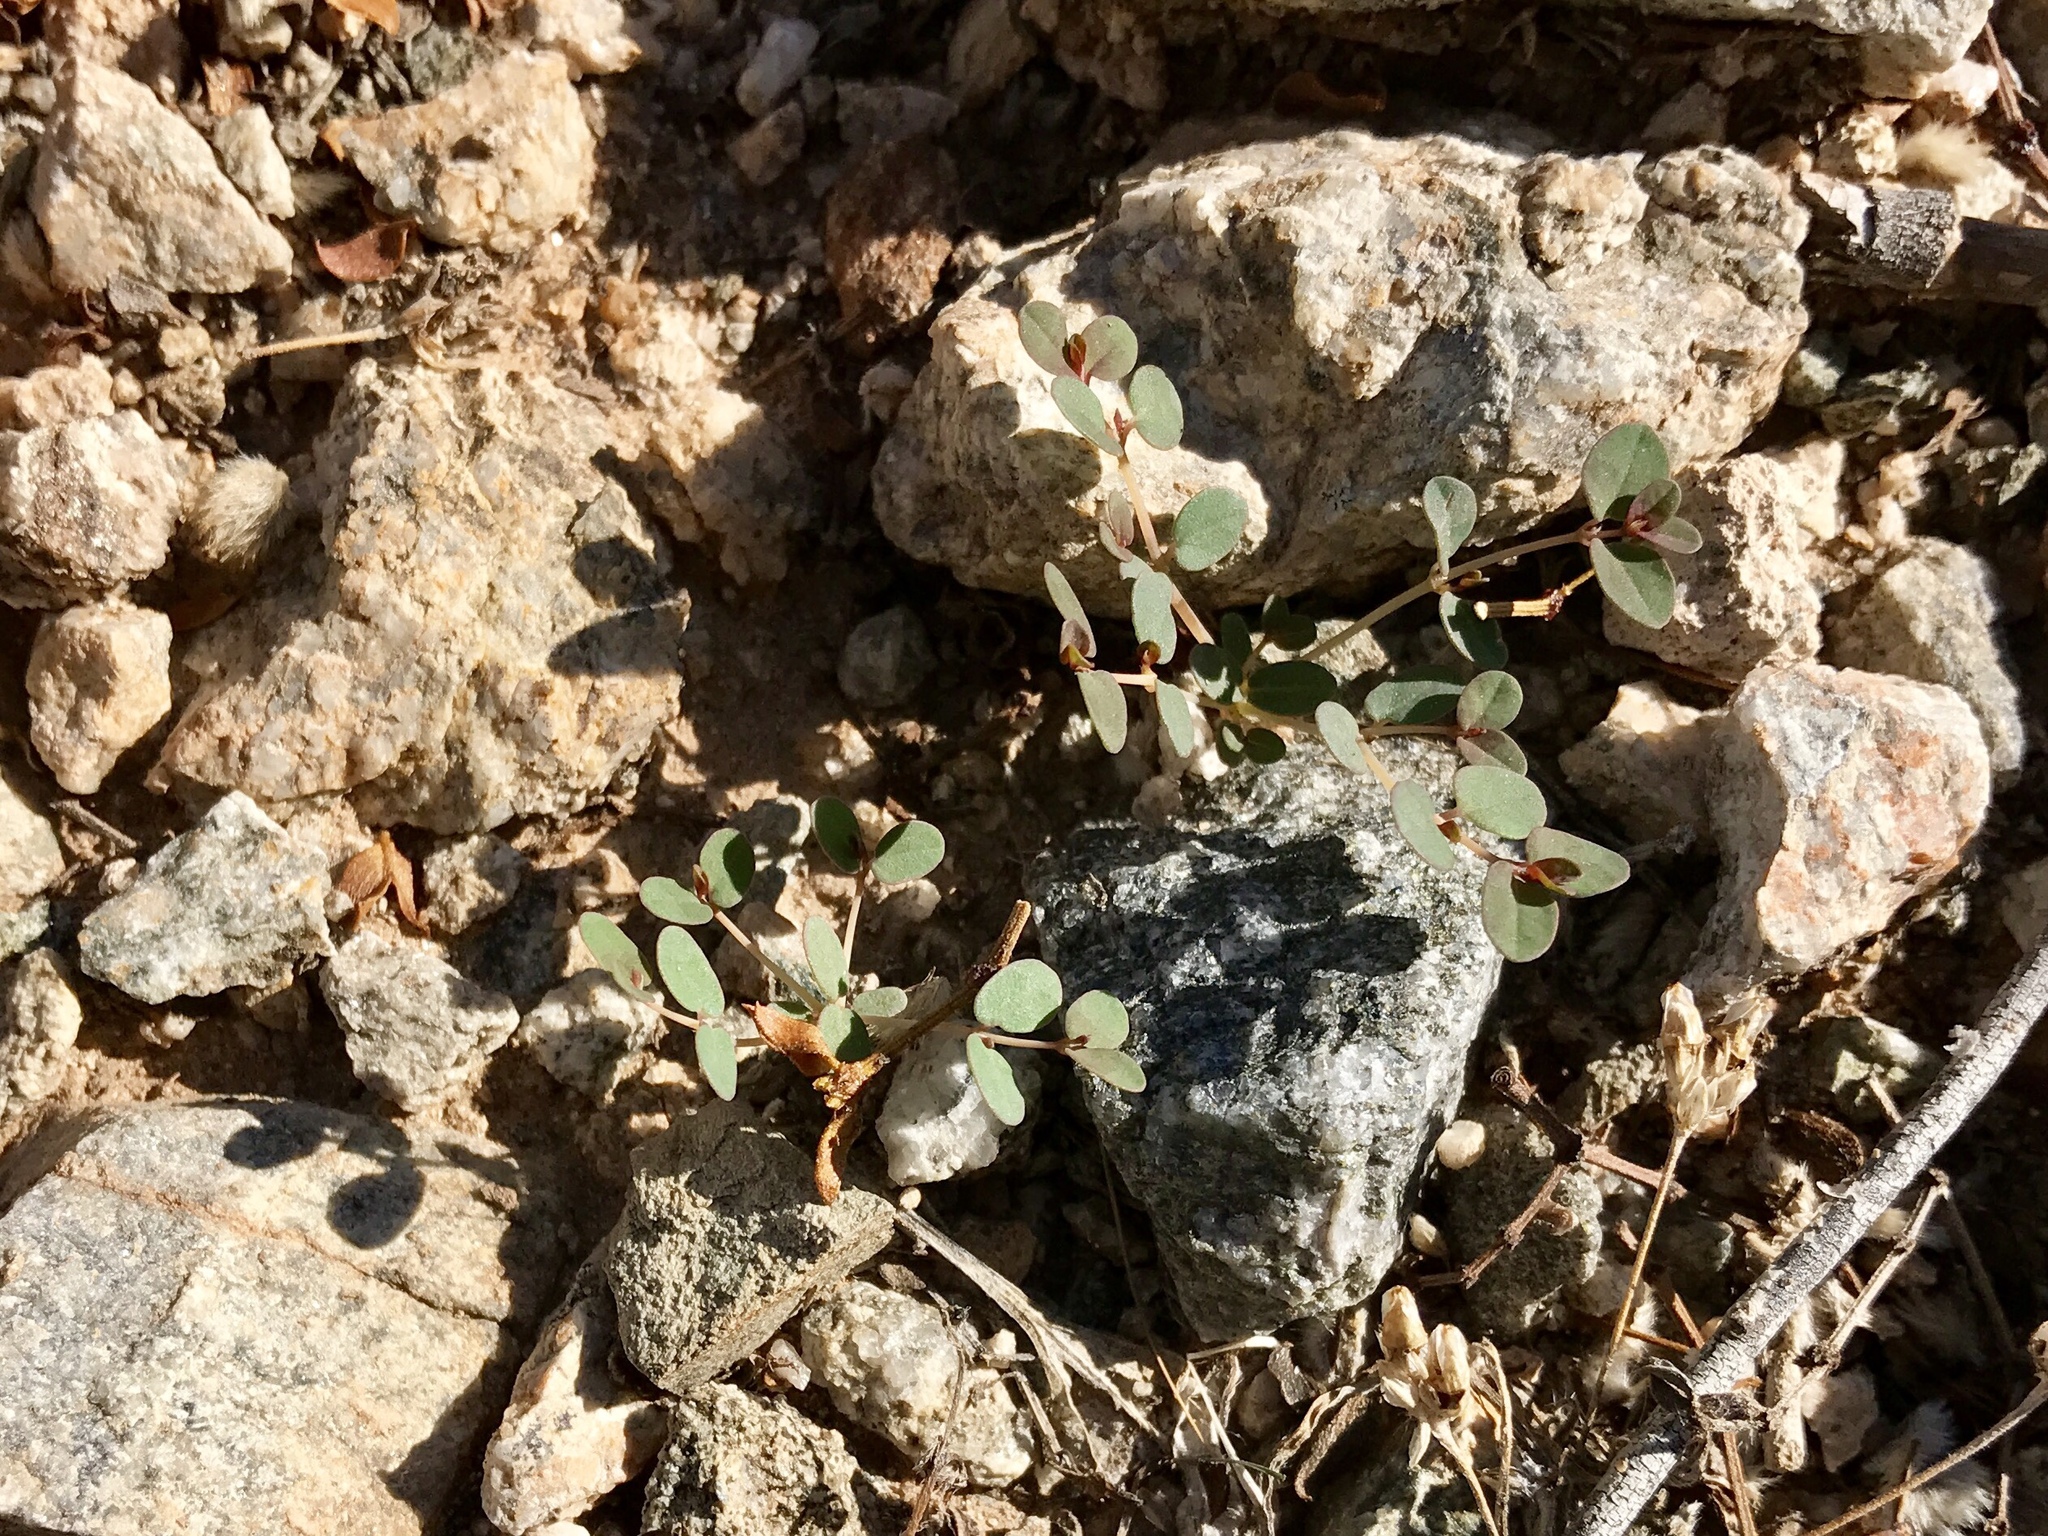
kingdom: Plantae
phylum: Tracheophyta
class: Magnoliopsida
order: Malpighiales
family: Euphorbiaceae
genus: Euphorbia
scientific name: Euphorbia polycarpa
